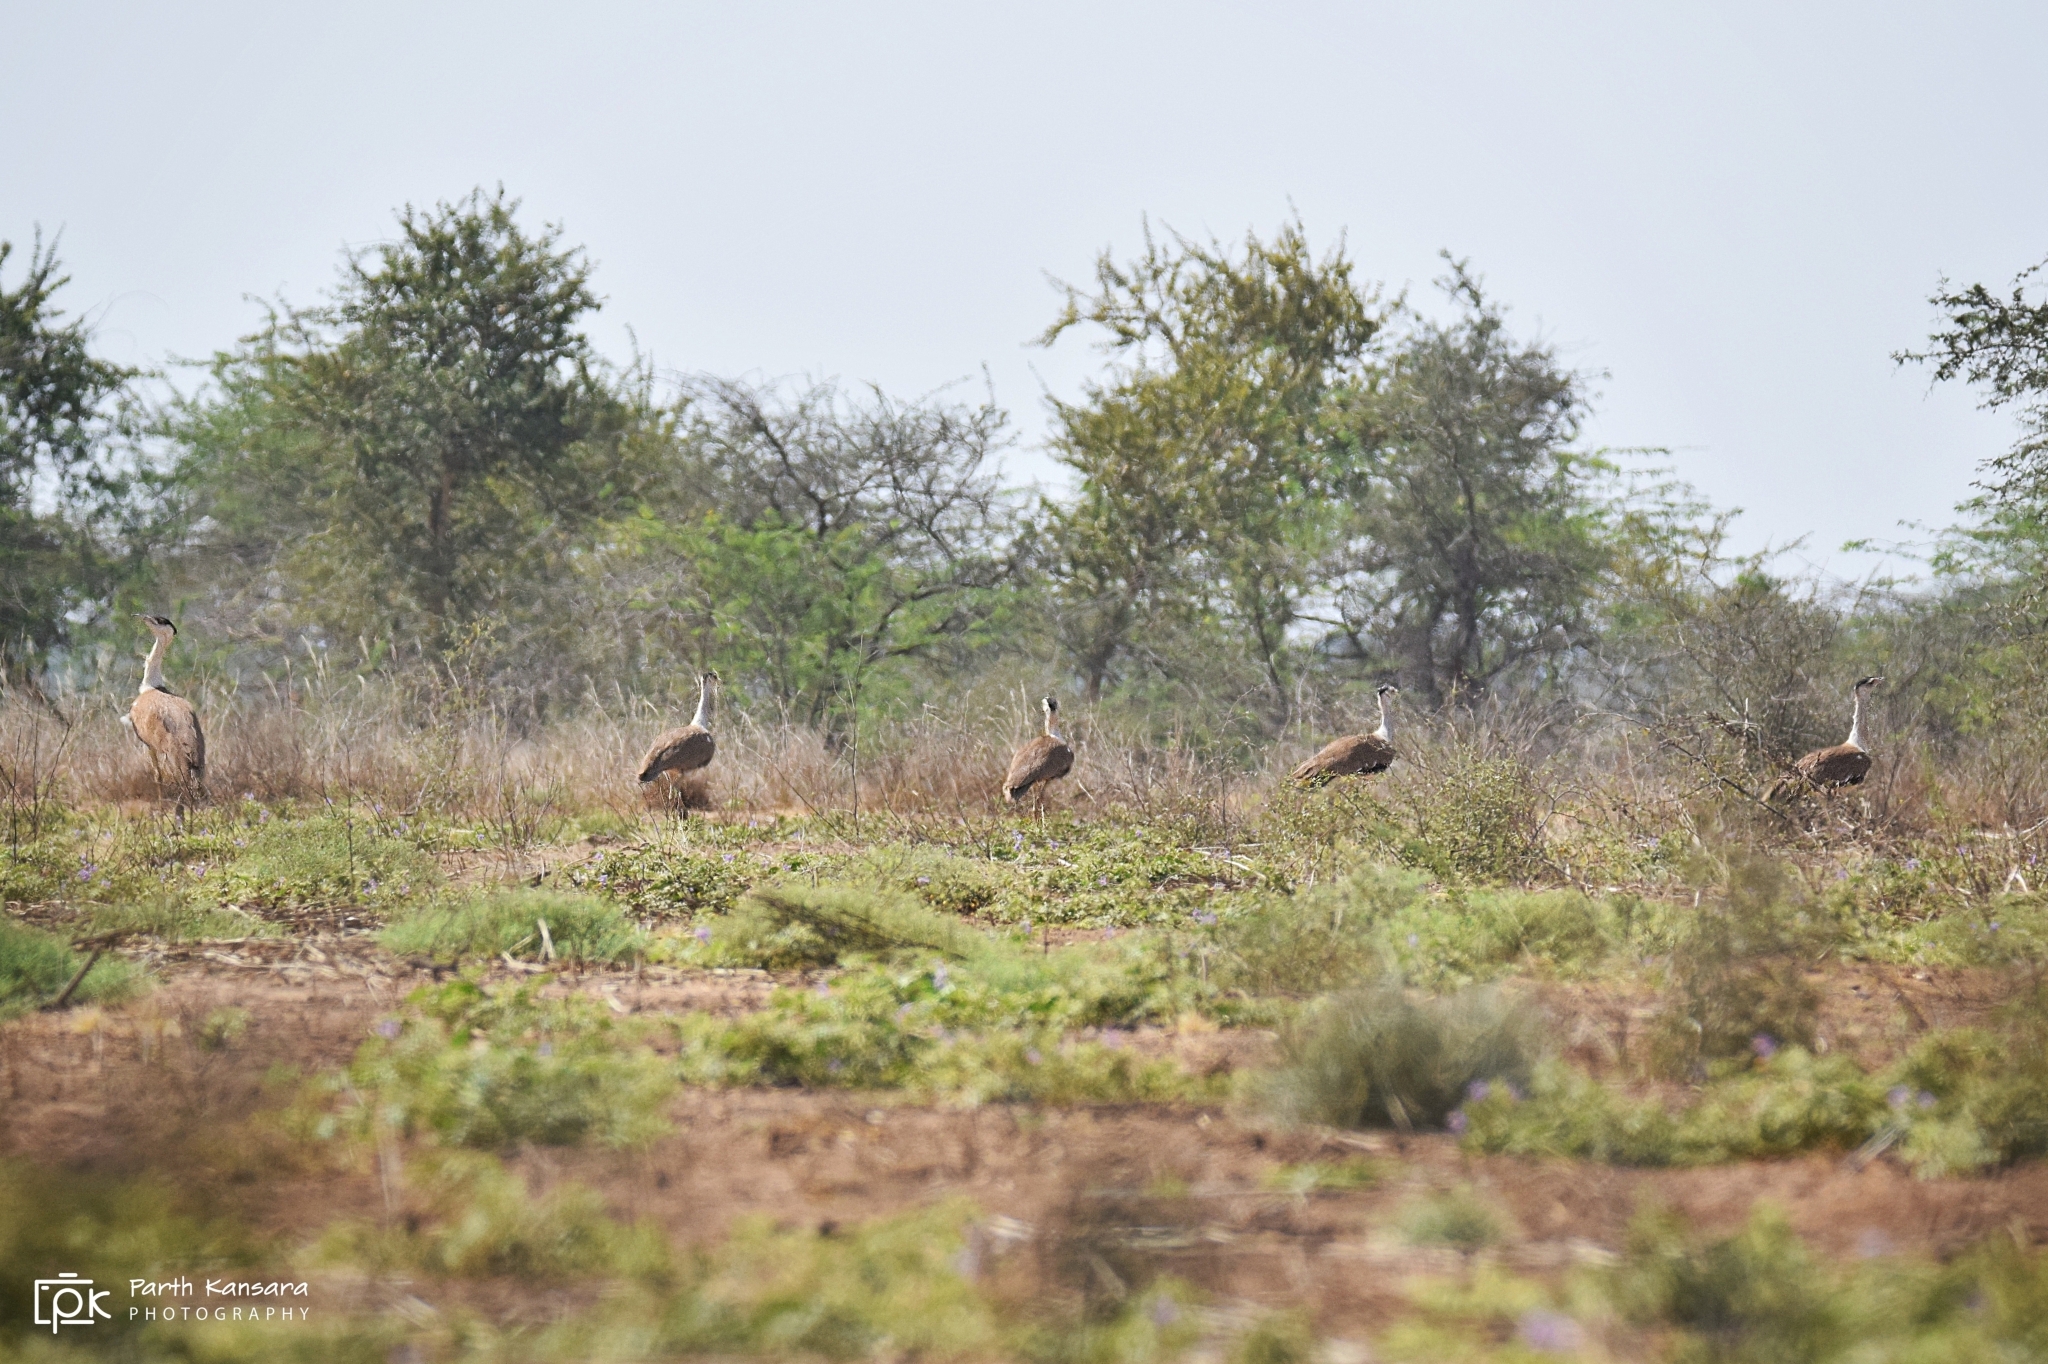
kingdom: Animalia
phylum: Chordata
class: Aves
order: Otidiformes
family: Otididae
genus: Ardeotis
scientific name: Ardeotis nigriceps
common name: Great indian bustard
